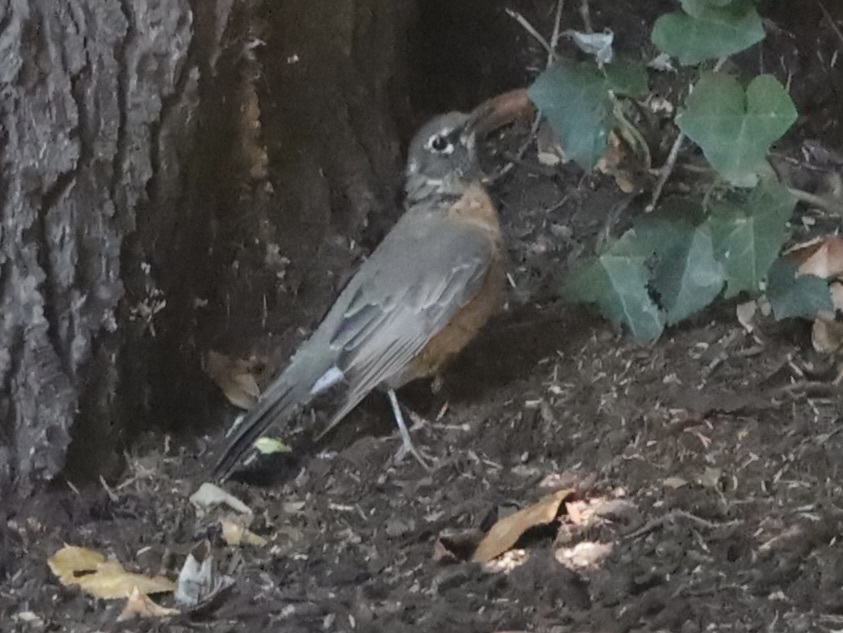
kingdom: Animalia
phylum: Chordata
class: Aves
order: Passeriformes
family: Turdidae
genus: Turdus
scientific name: Turdus migratorius
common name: American robin
